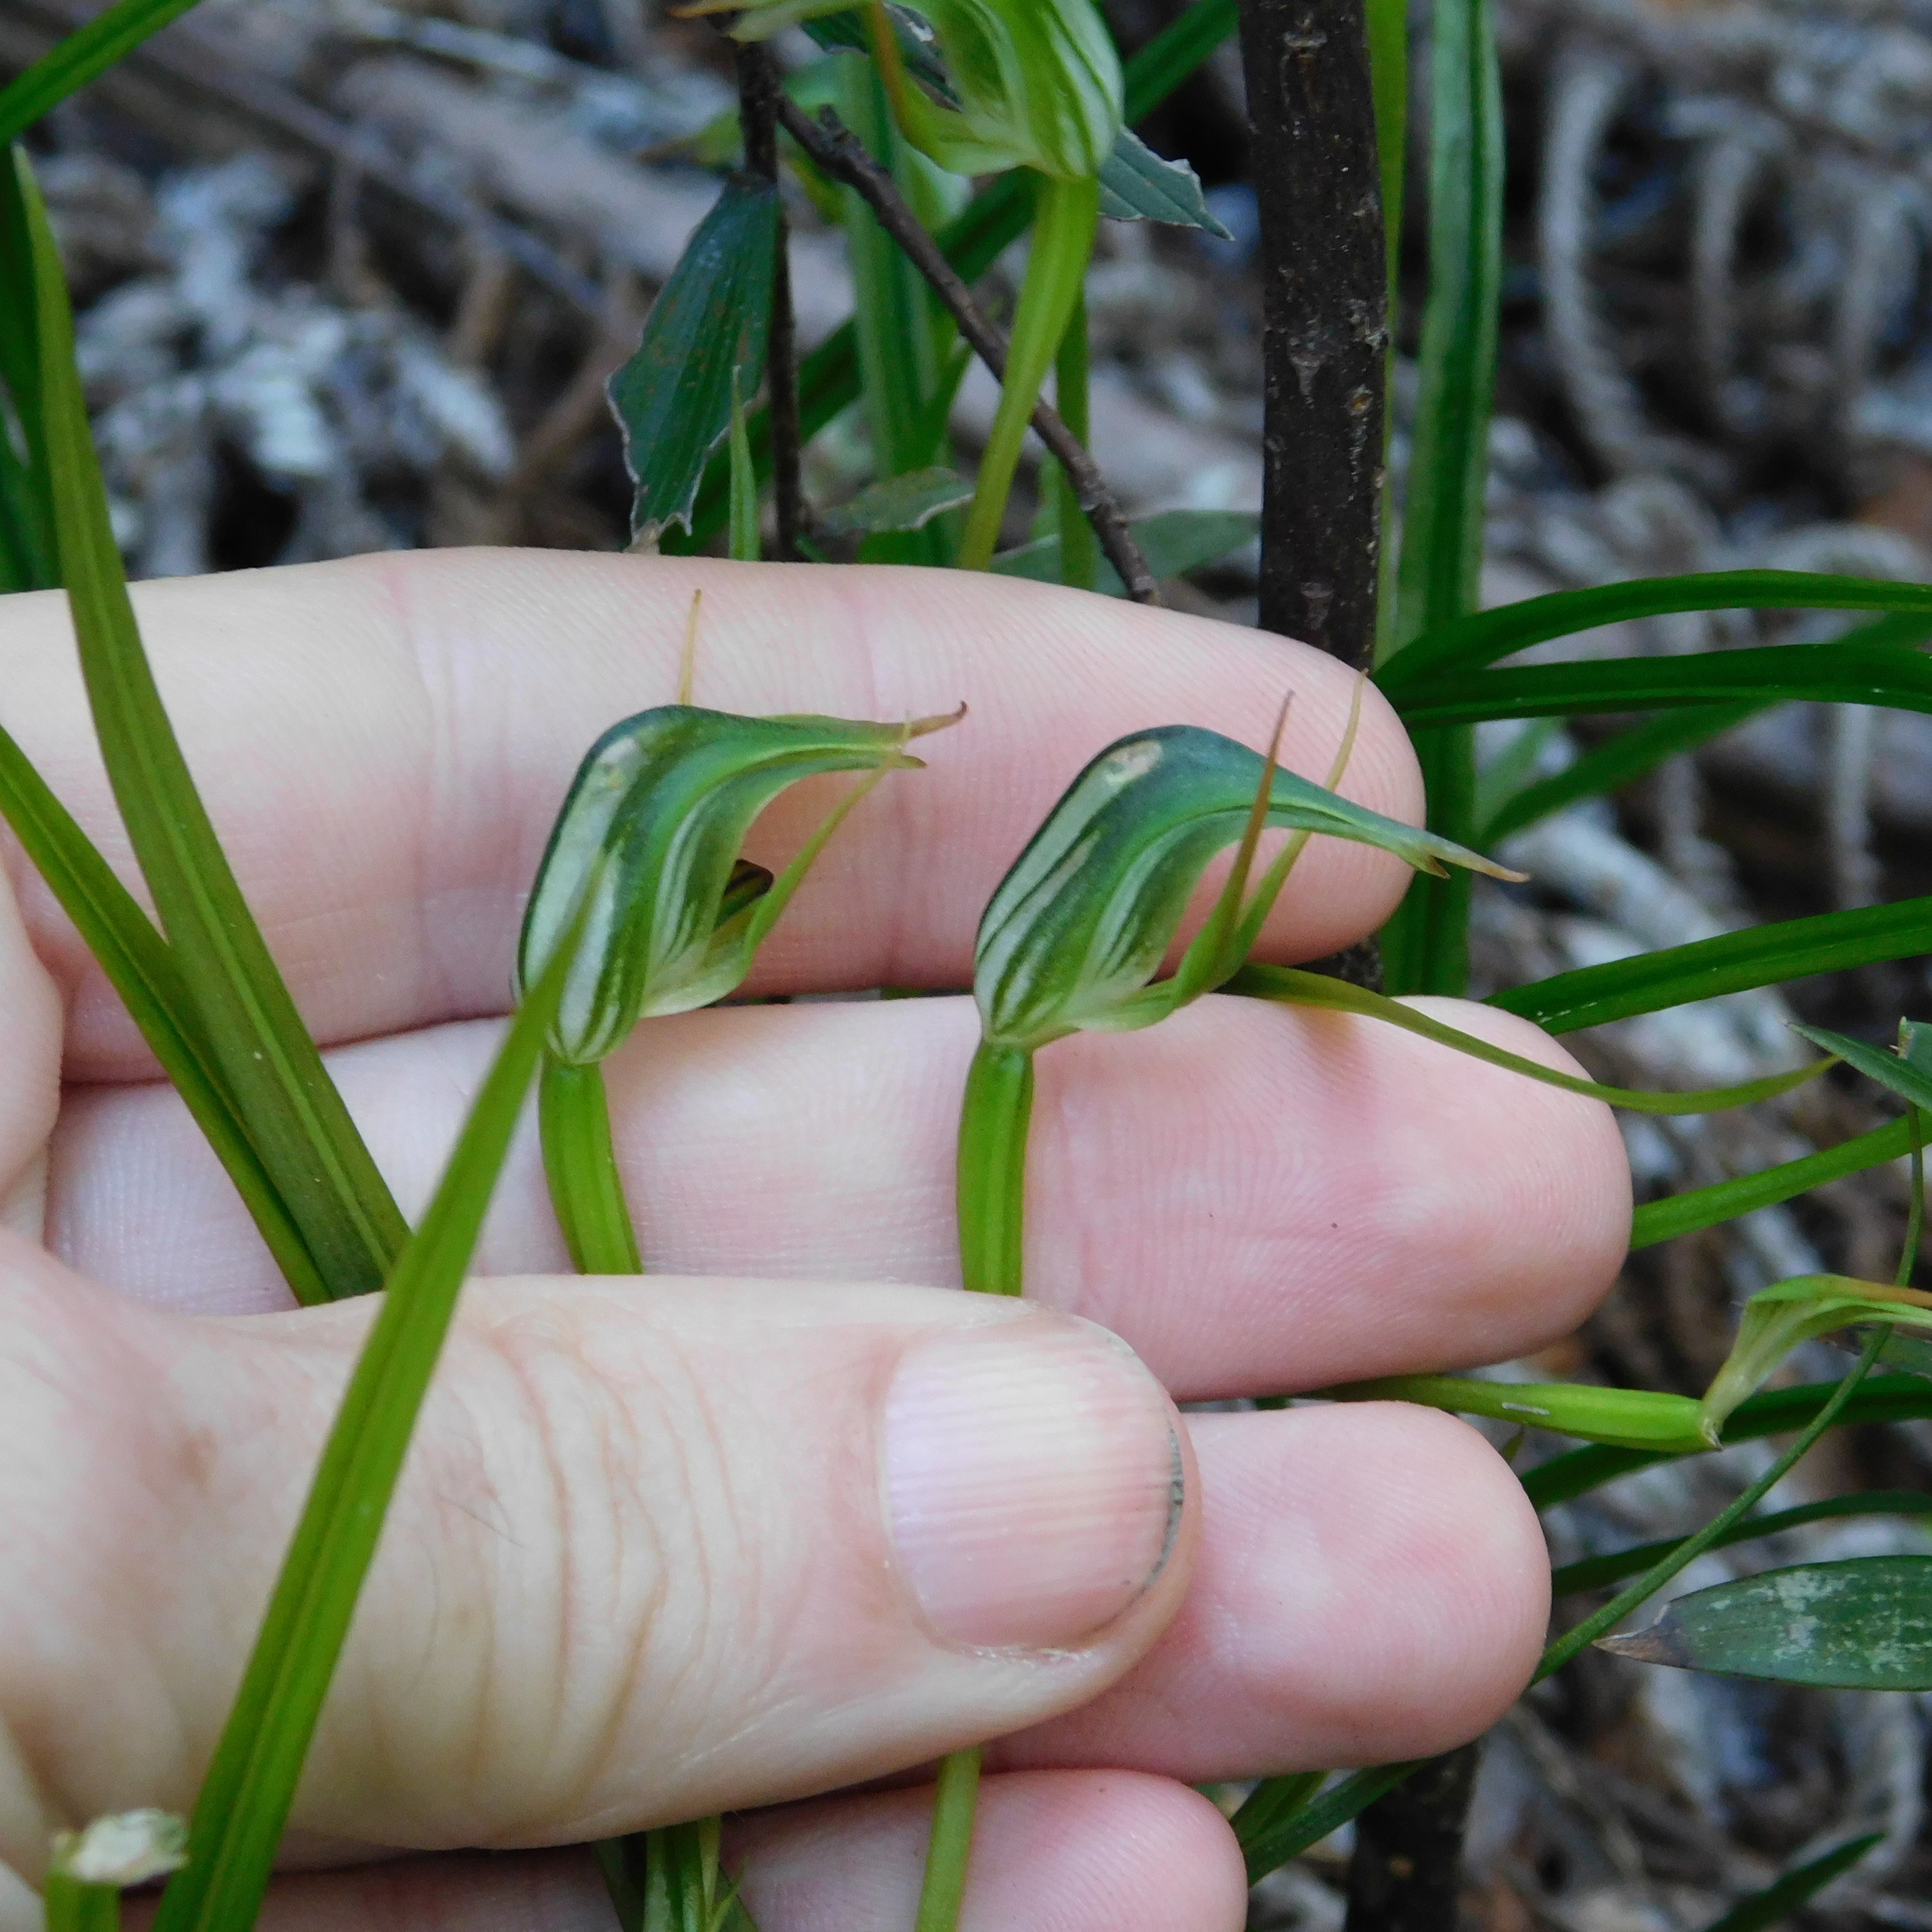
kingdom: Plantae
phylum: Tracheophyta
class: Liliopsida
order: Asparagales
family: Orchidaceae
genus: Pterostylis
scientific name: Pterostylis graminea
